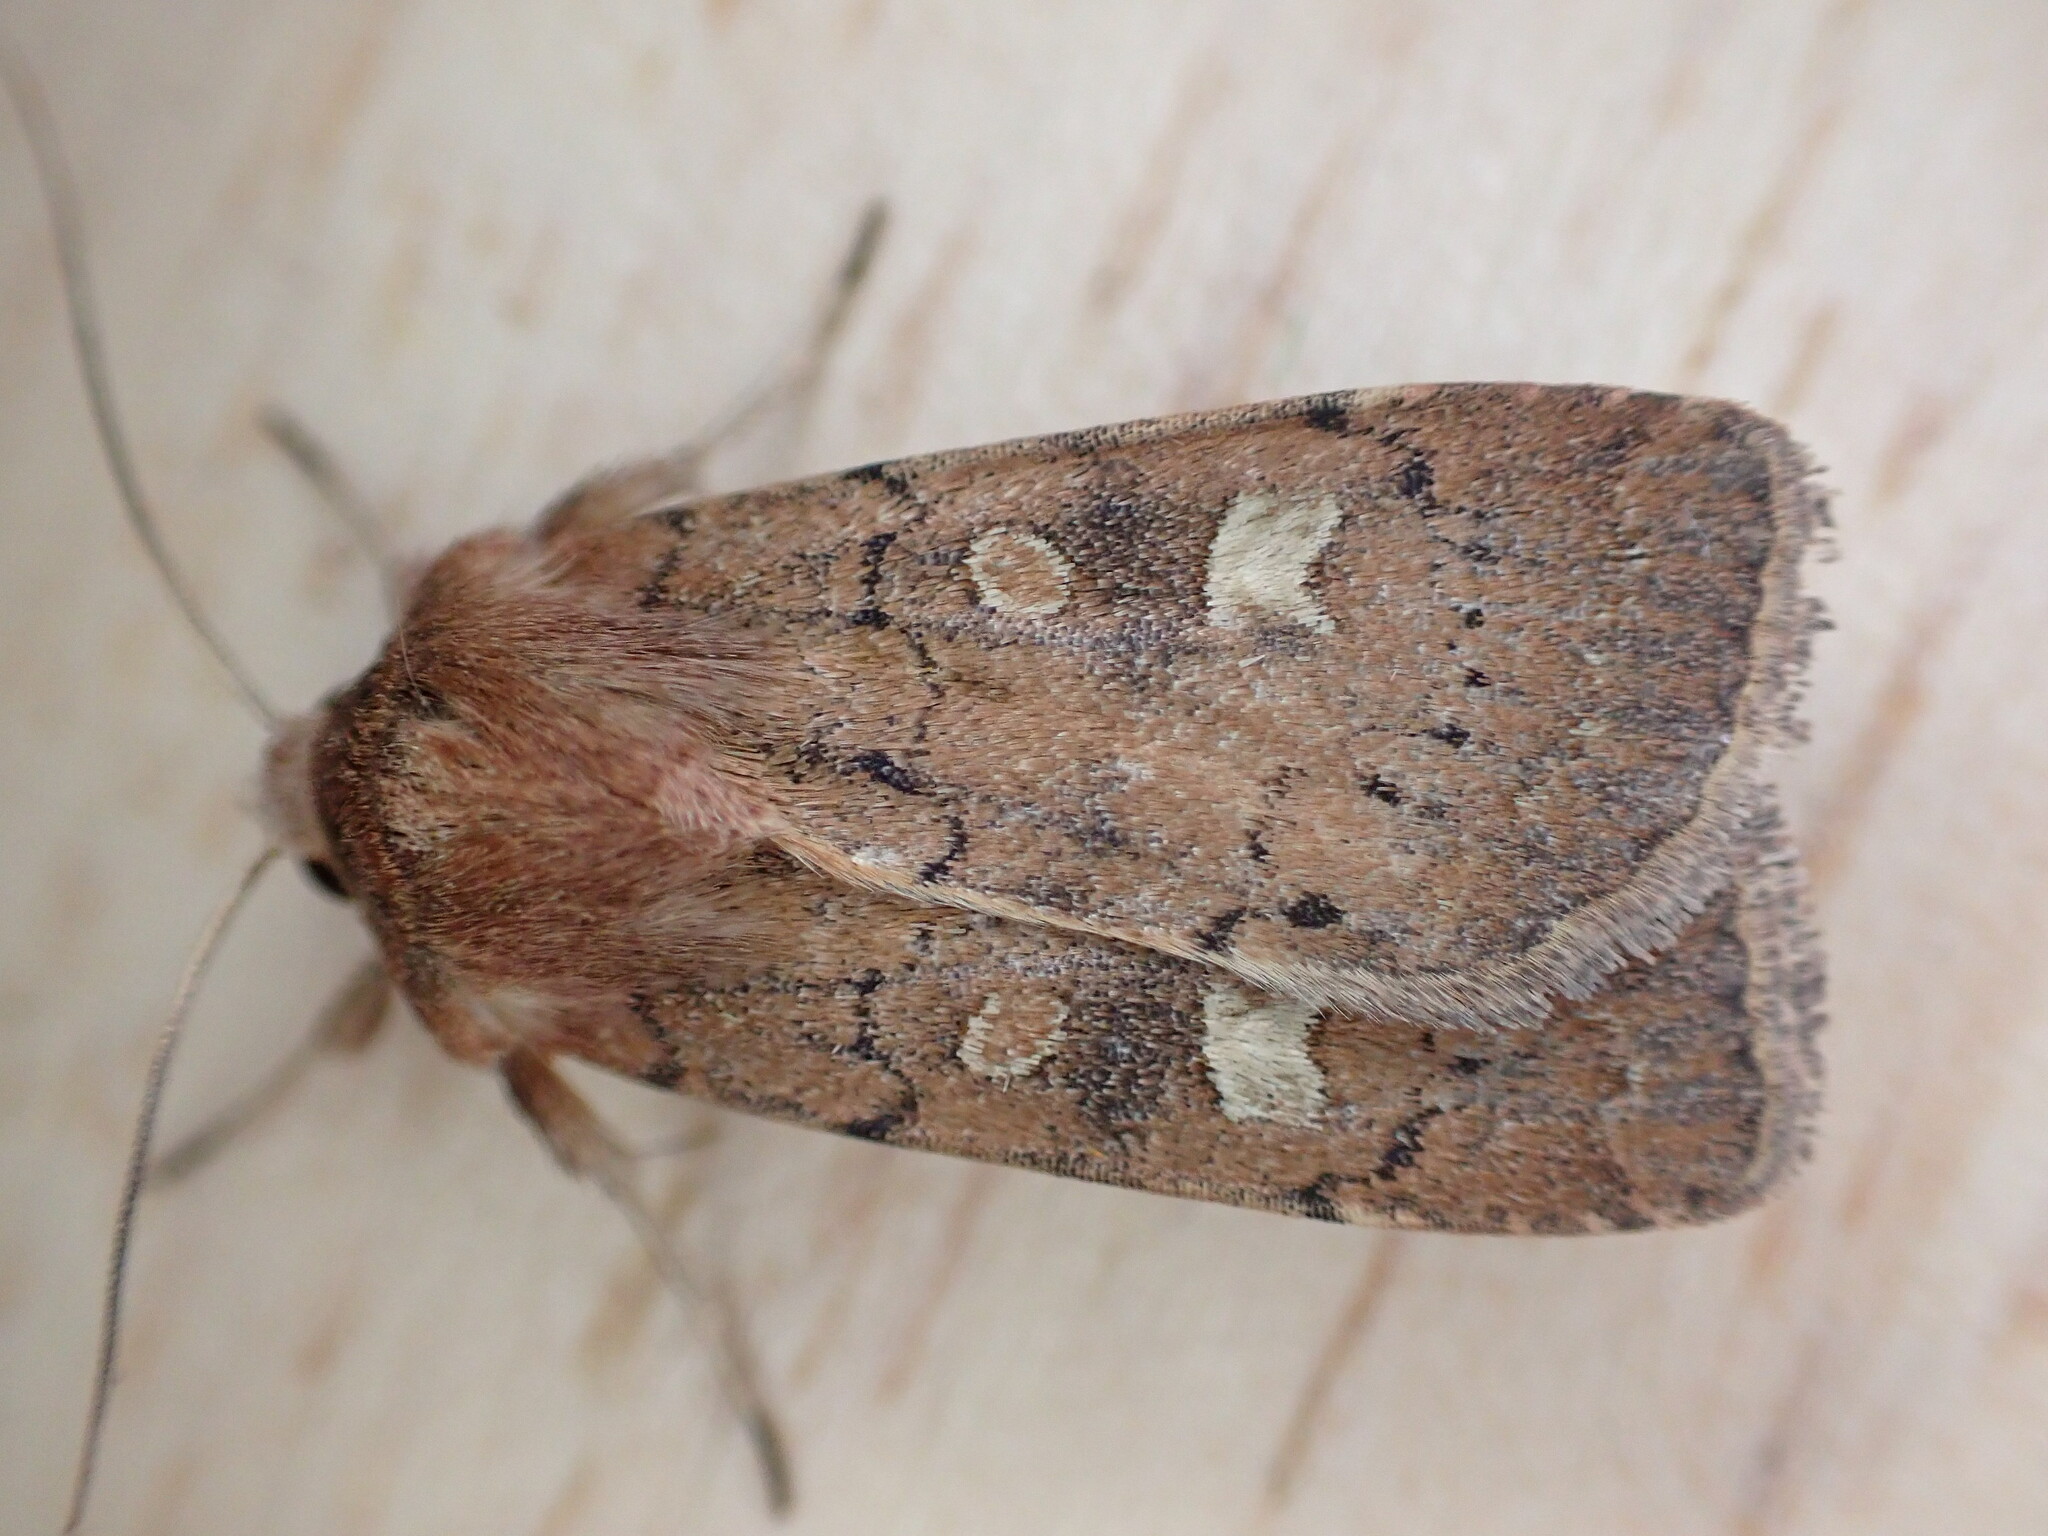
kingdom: Animalia
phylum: Arthropoda
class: Insecta
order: Lepidoptera
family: Noctuidae
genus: Xestia
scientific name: Xestia xanthographa
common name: Square-spot rustic
